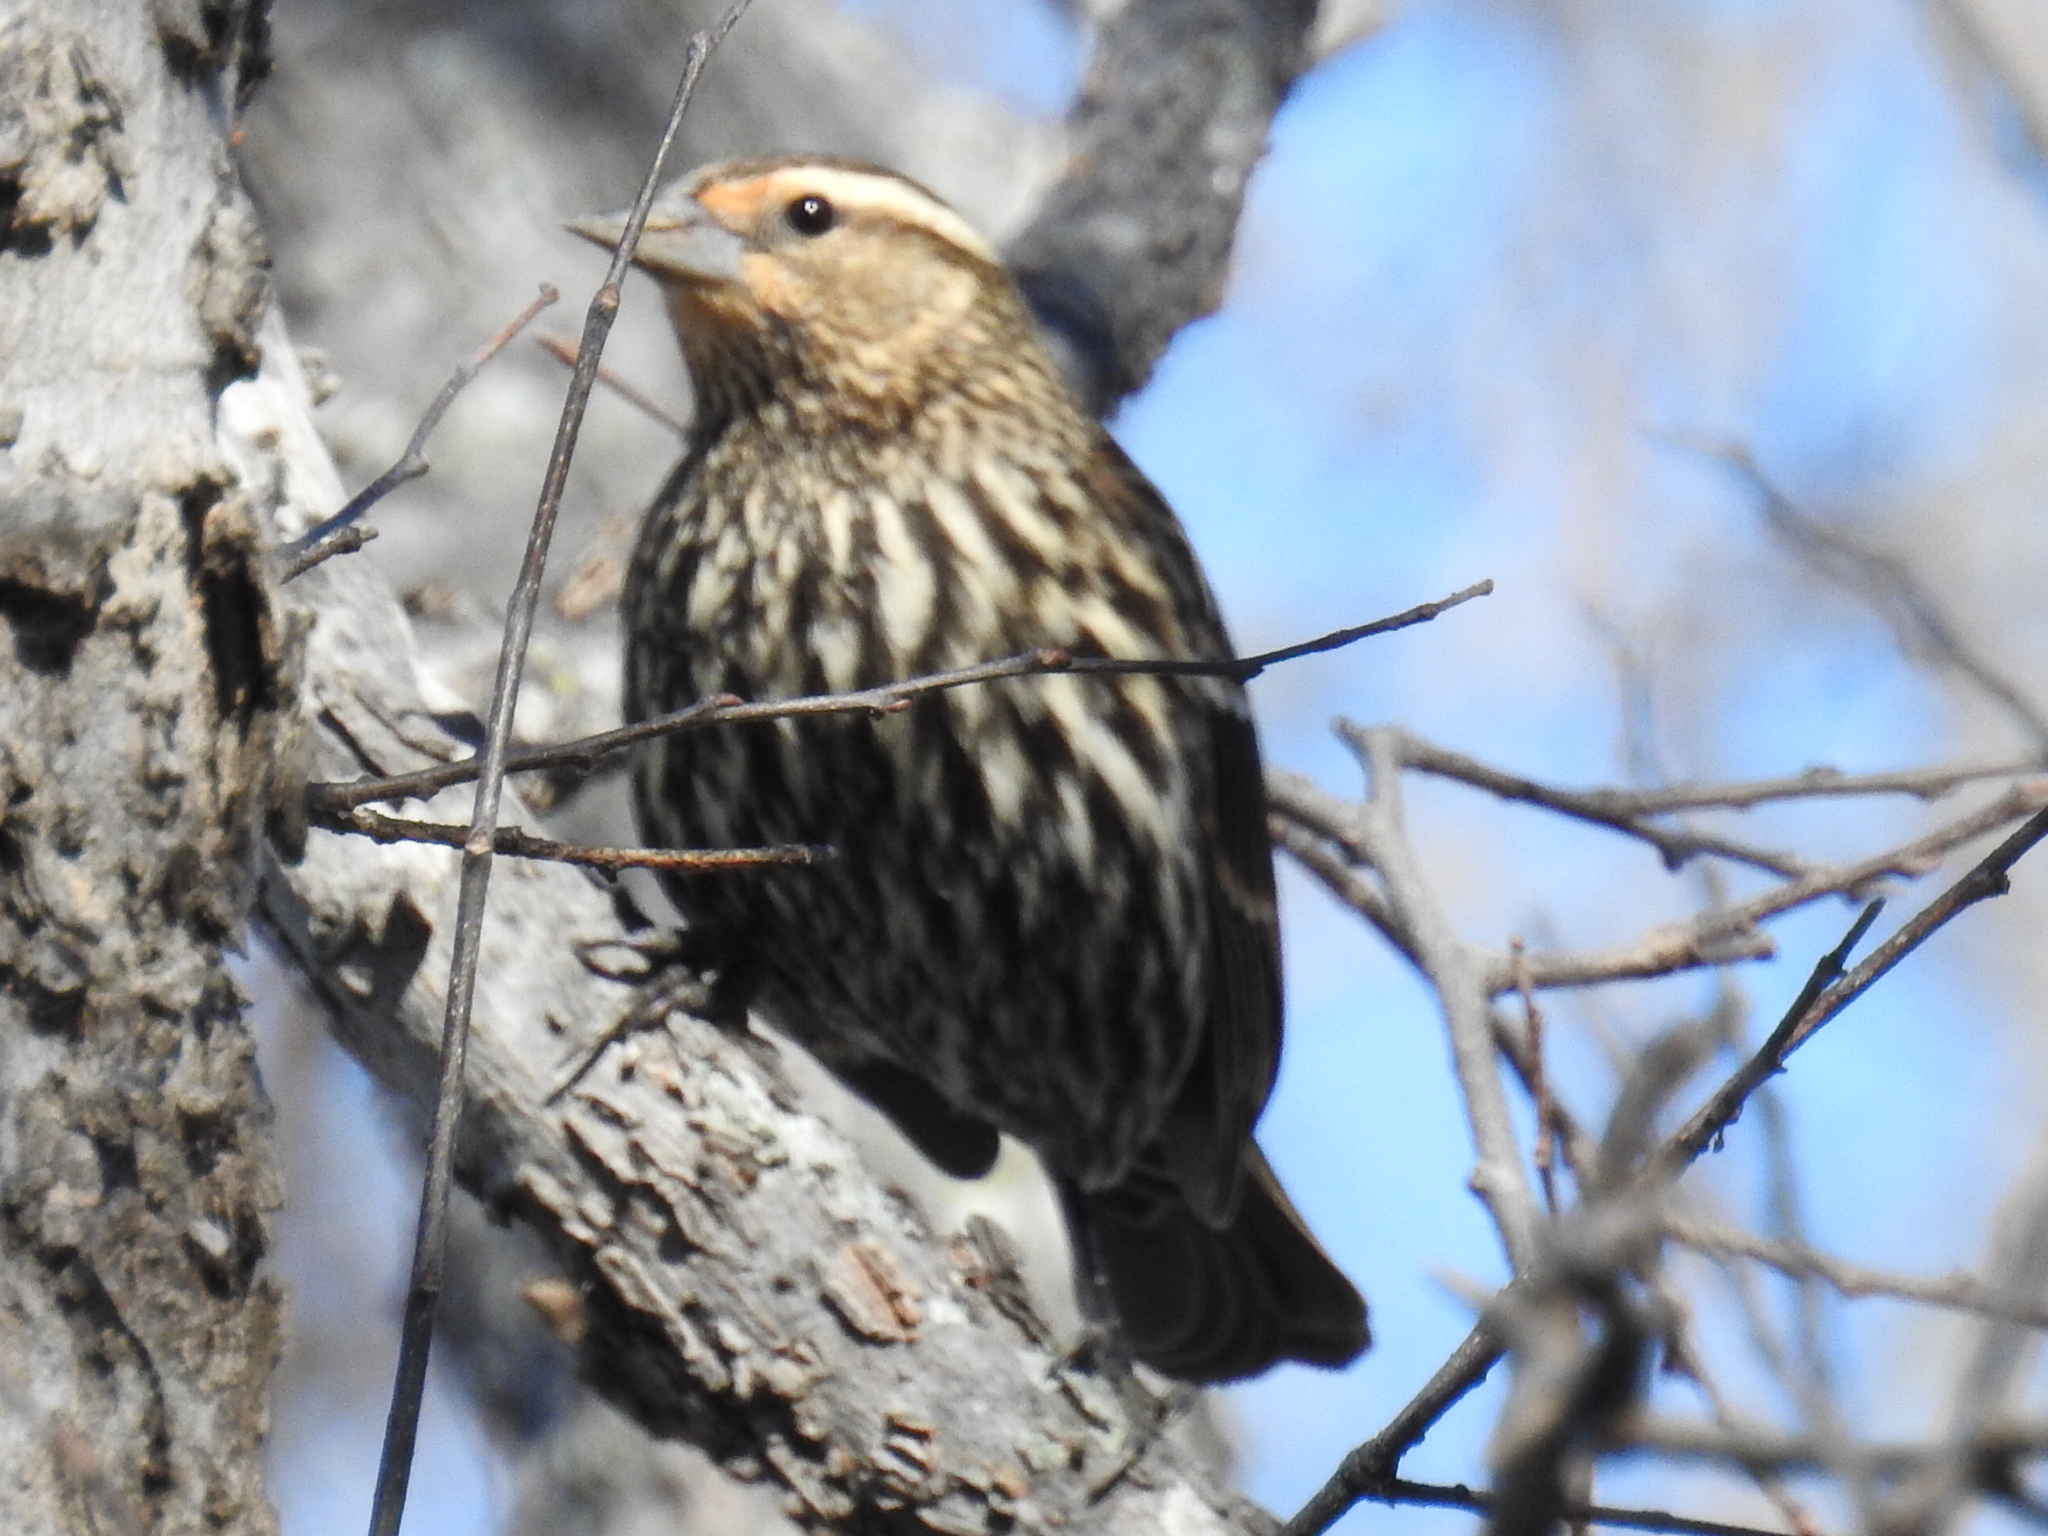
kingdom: Animalia
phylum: Chordata
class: Aves
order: Passeriformes
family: Icteridae
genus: Agelaius
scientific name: Agelaius phoeniceus
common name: Red-winged blackbird
